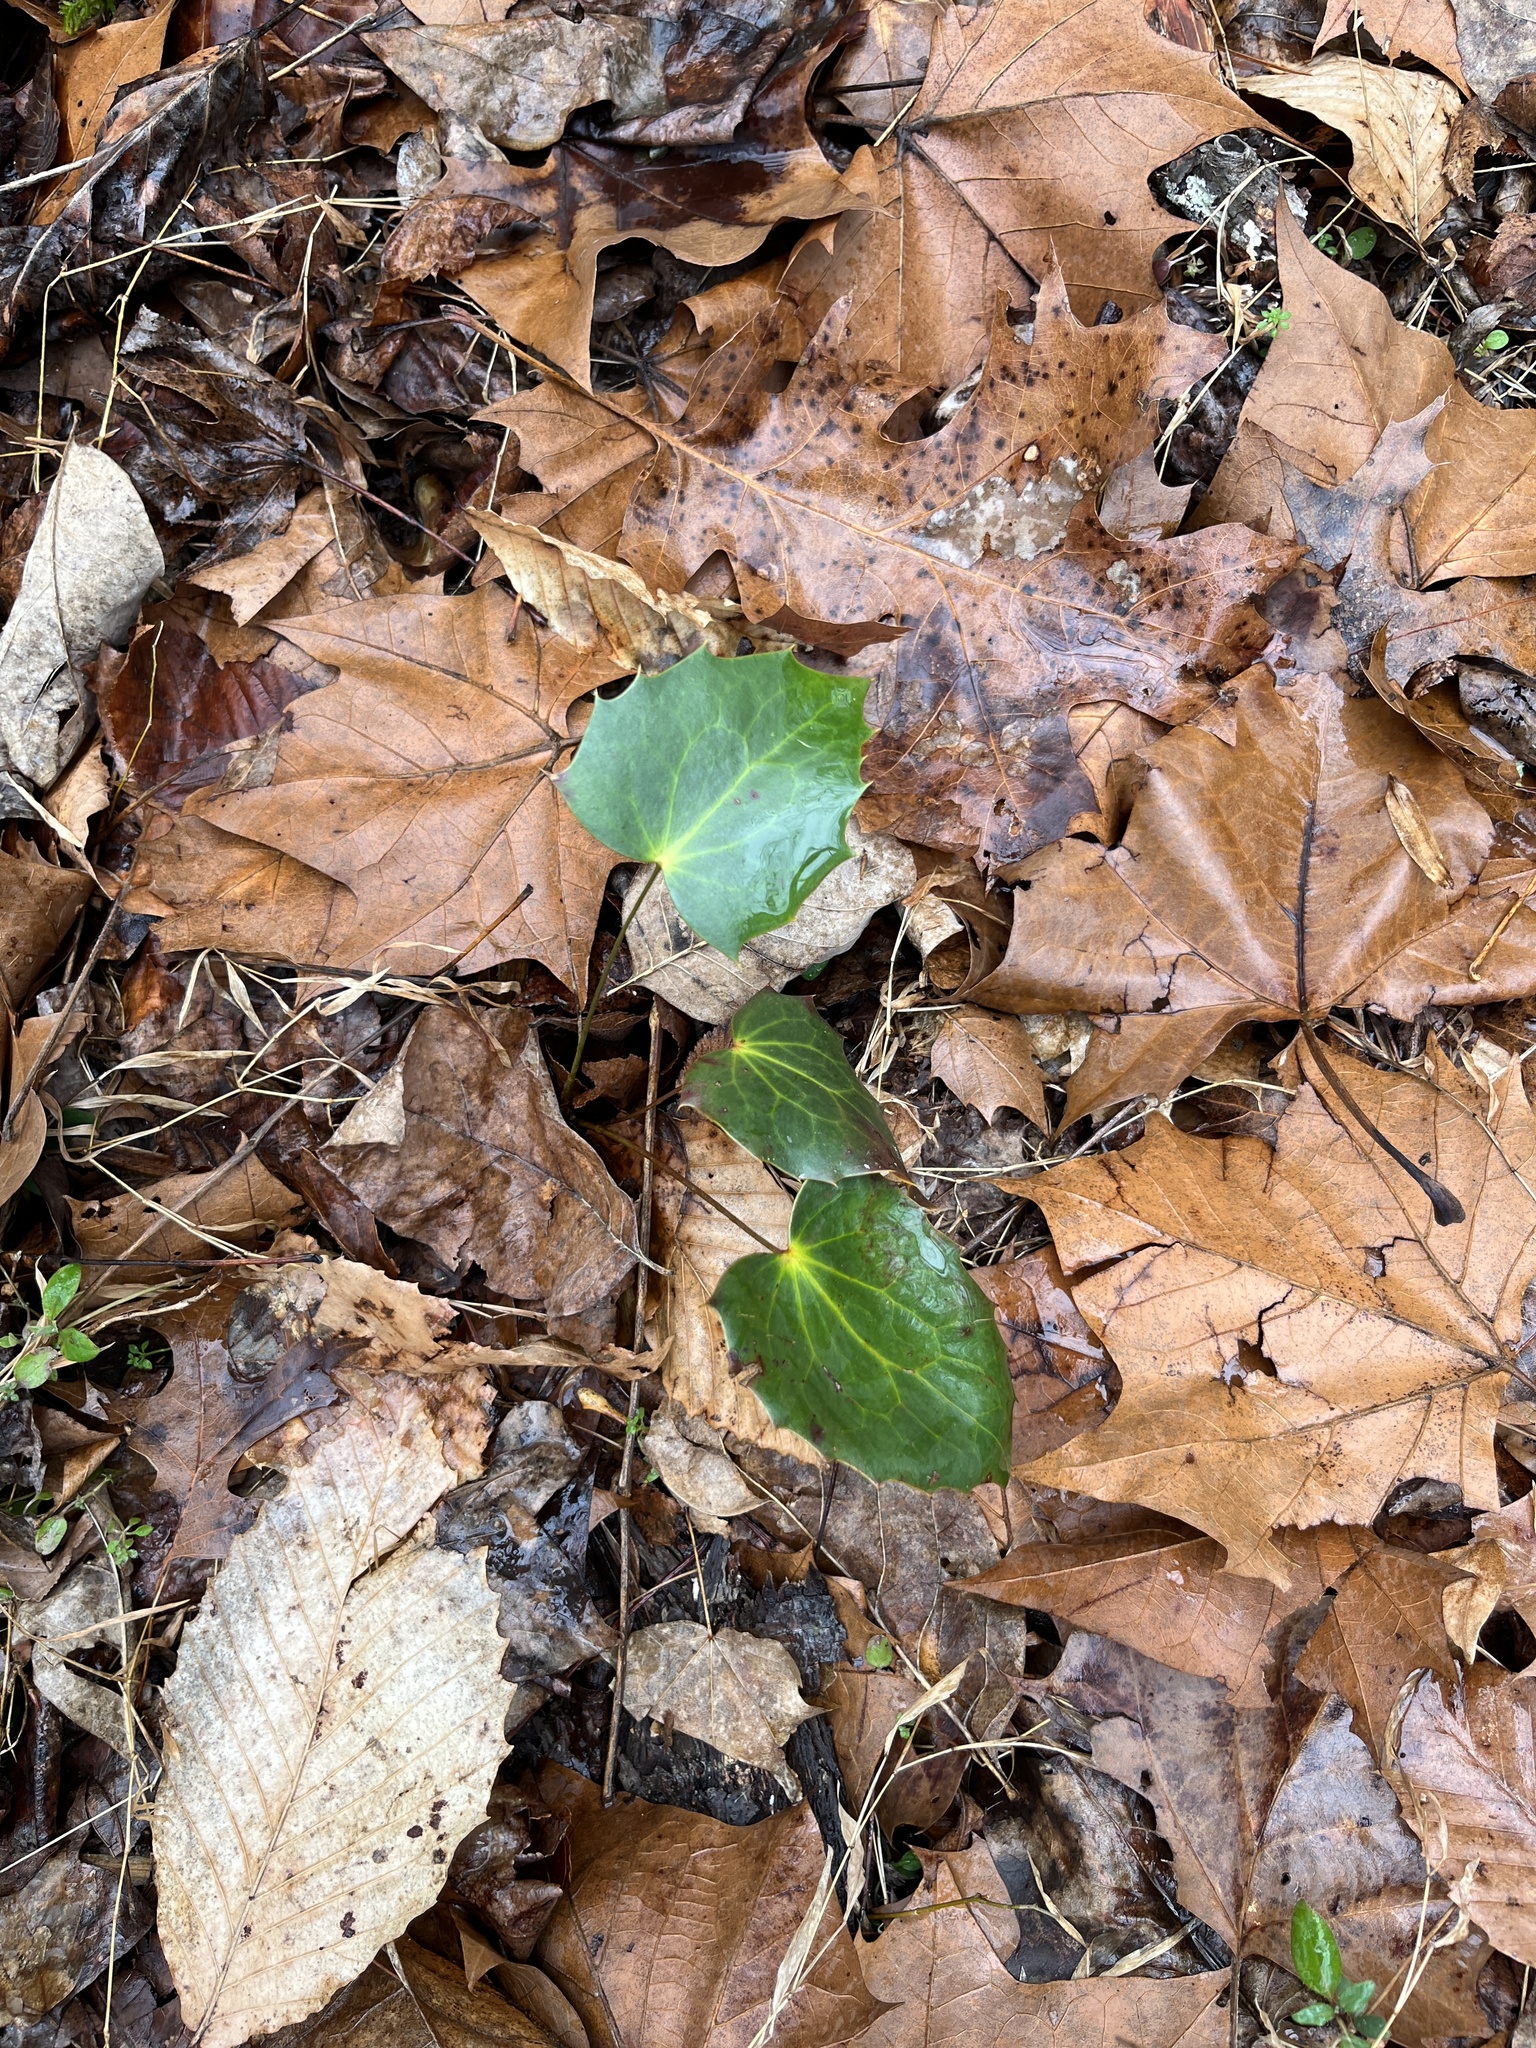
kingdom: Plantae
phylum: Tracheophyta
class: Magnoliopsida
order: Ranunculales
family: Berberidaceae
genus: Mahonia
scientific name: Mahonia bealei
